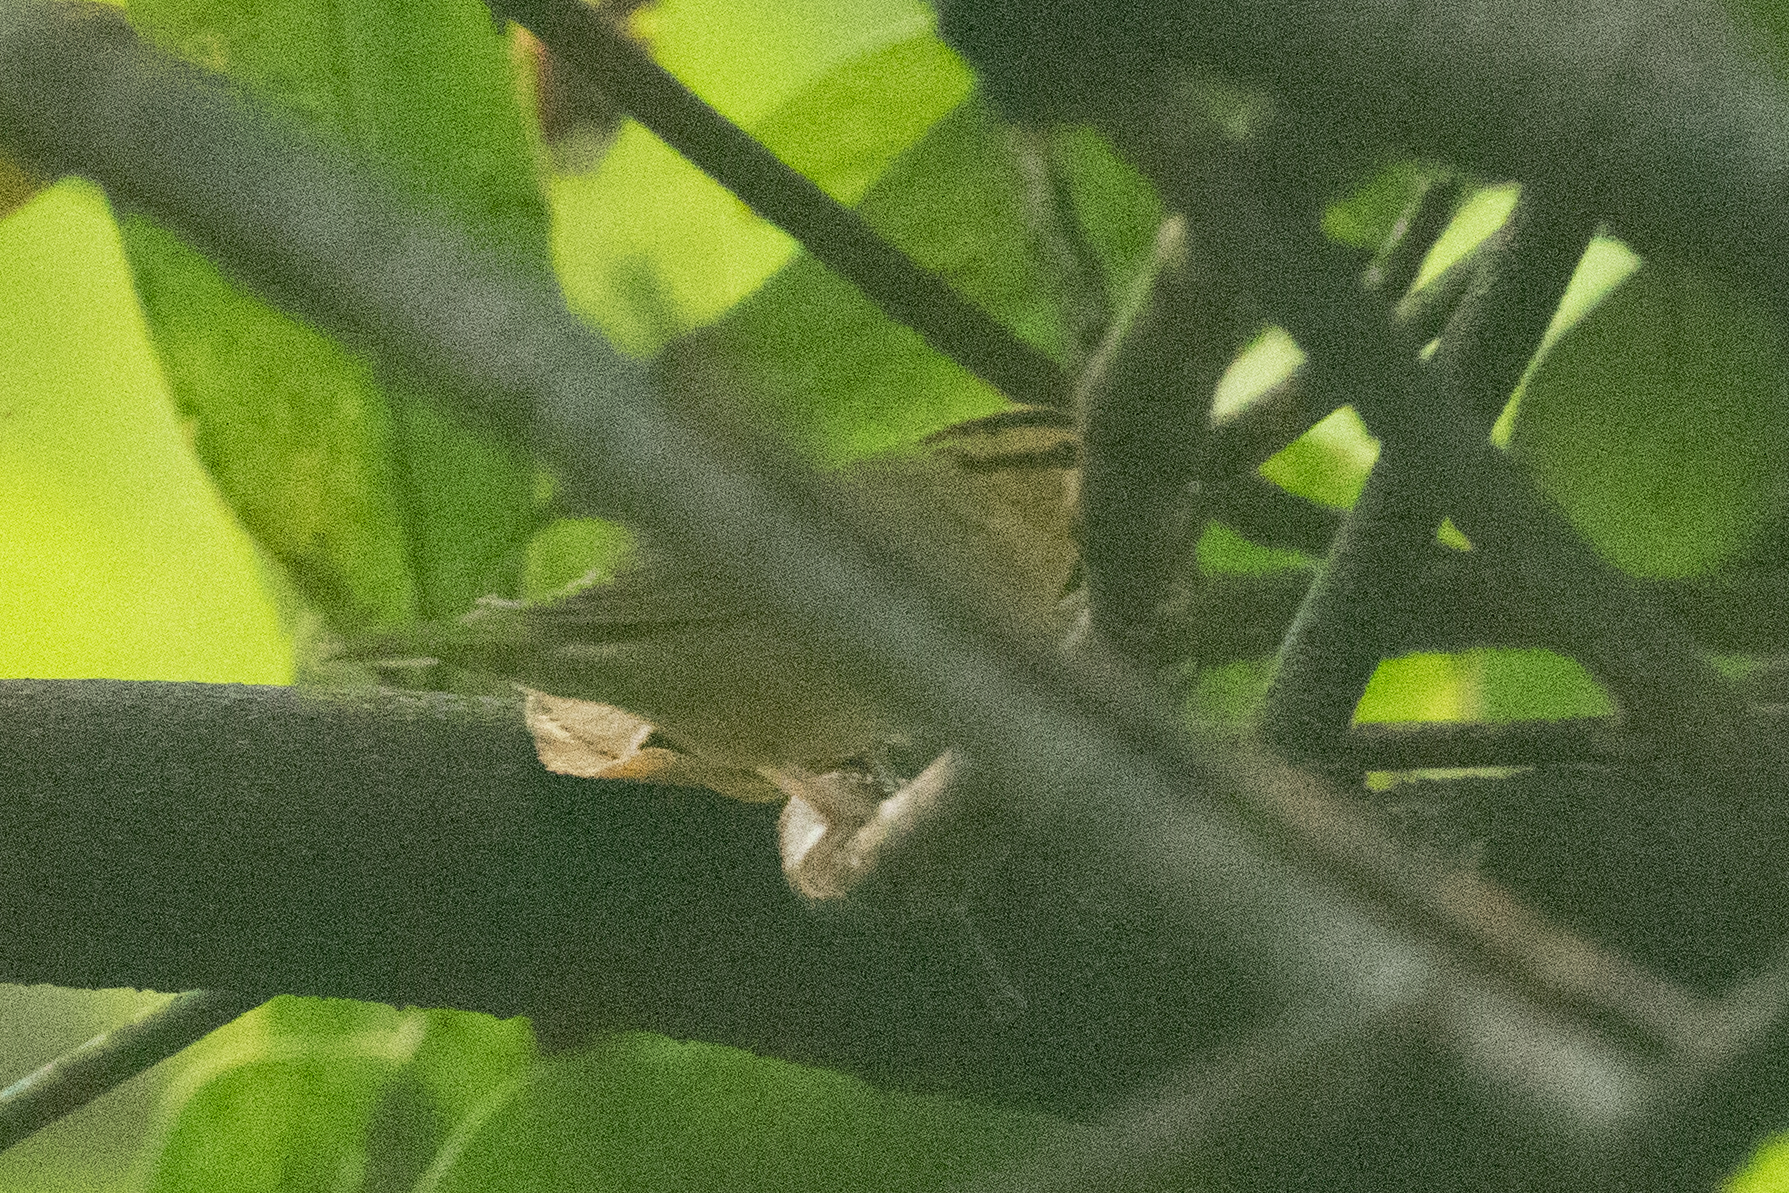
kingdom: Animalia
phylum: Chordata
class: Aves
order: Passeriformes
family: Parulidae
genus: Helmitheros
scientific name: Helmitheros vermivorum
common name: Worm-eating warbler
